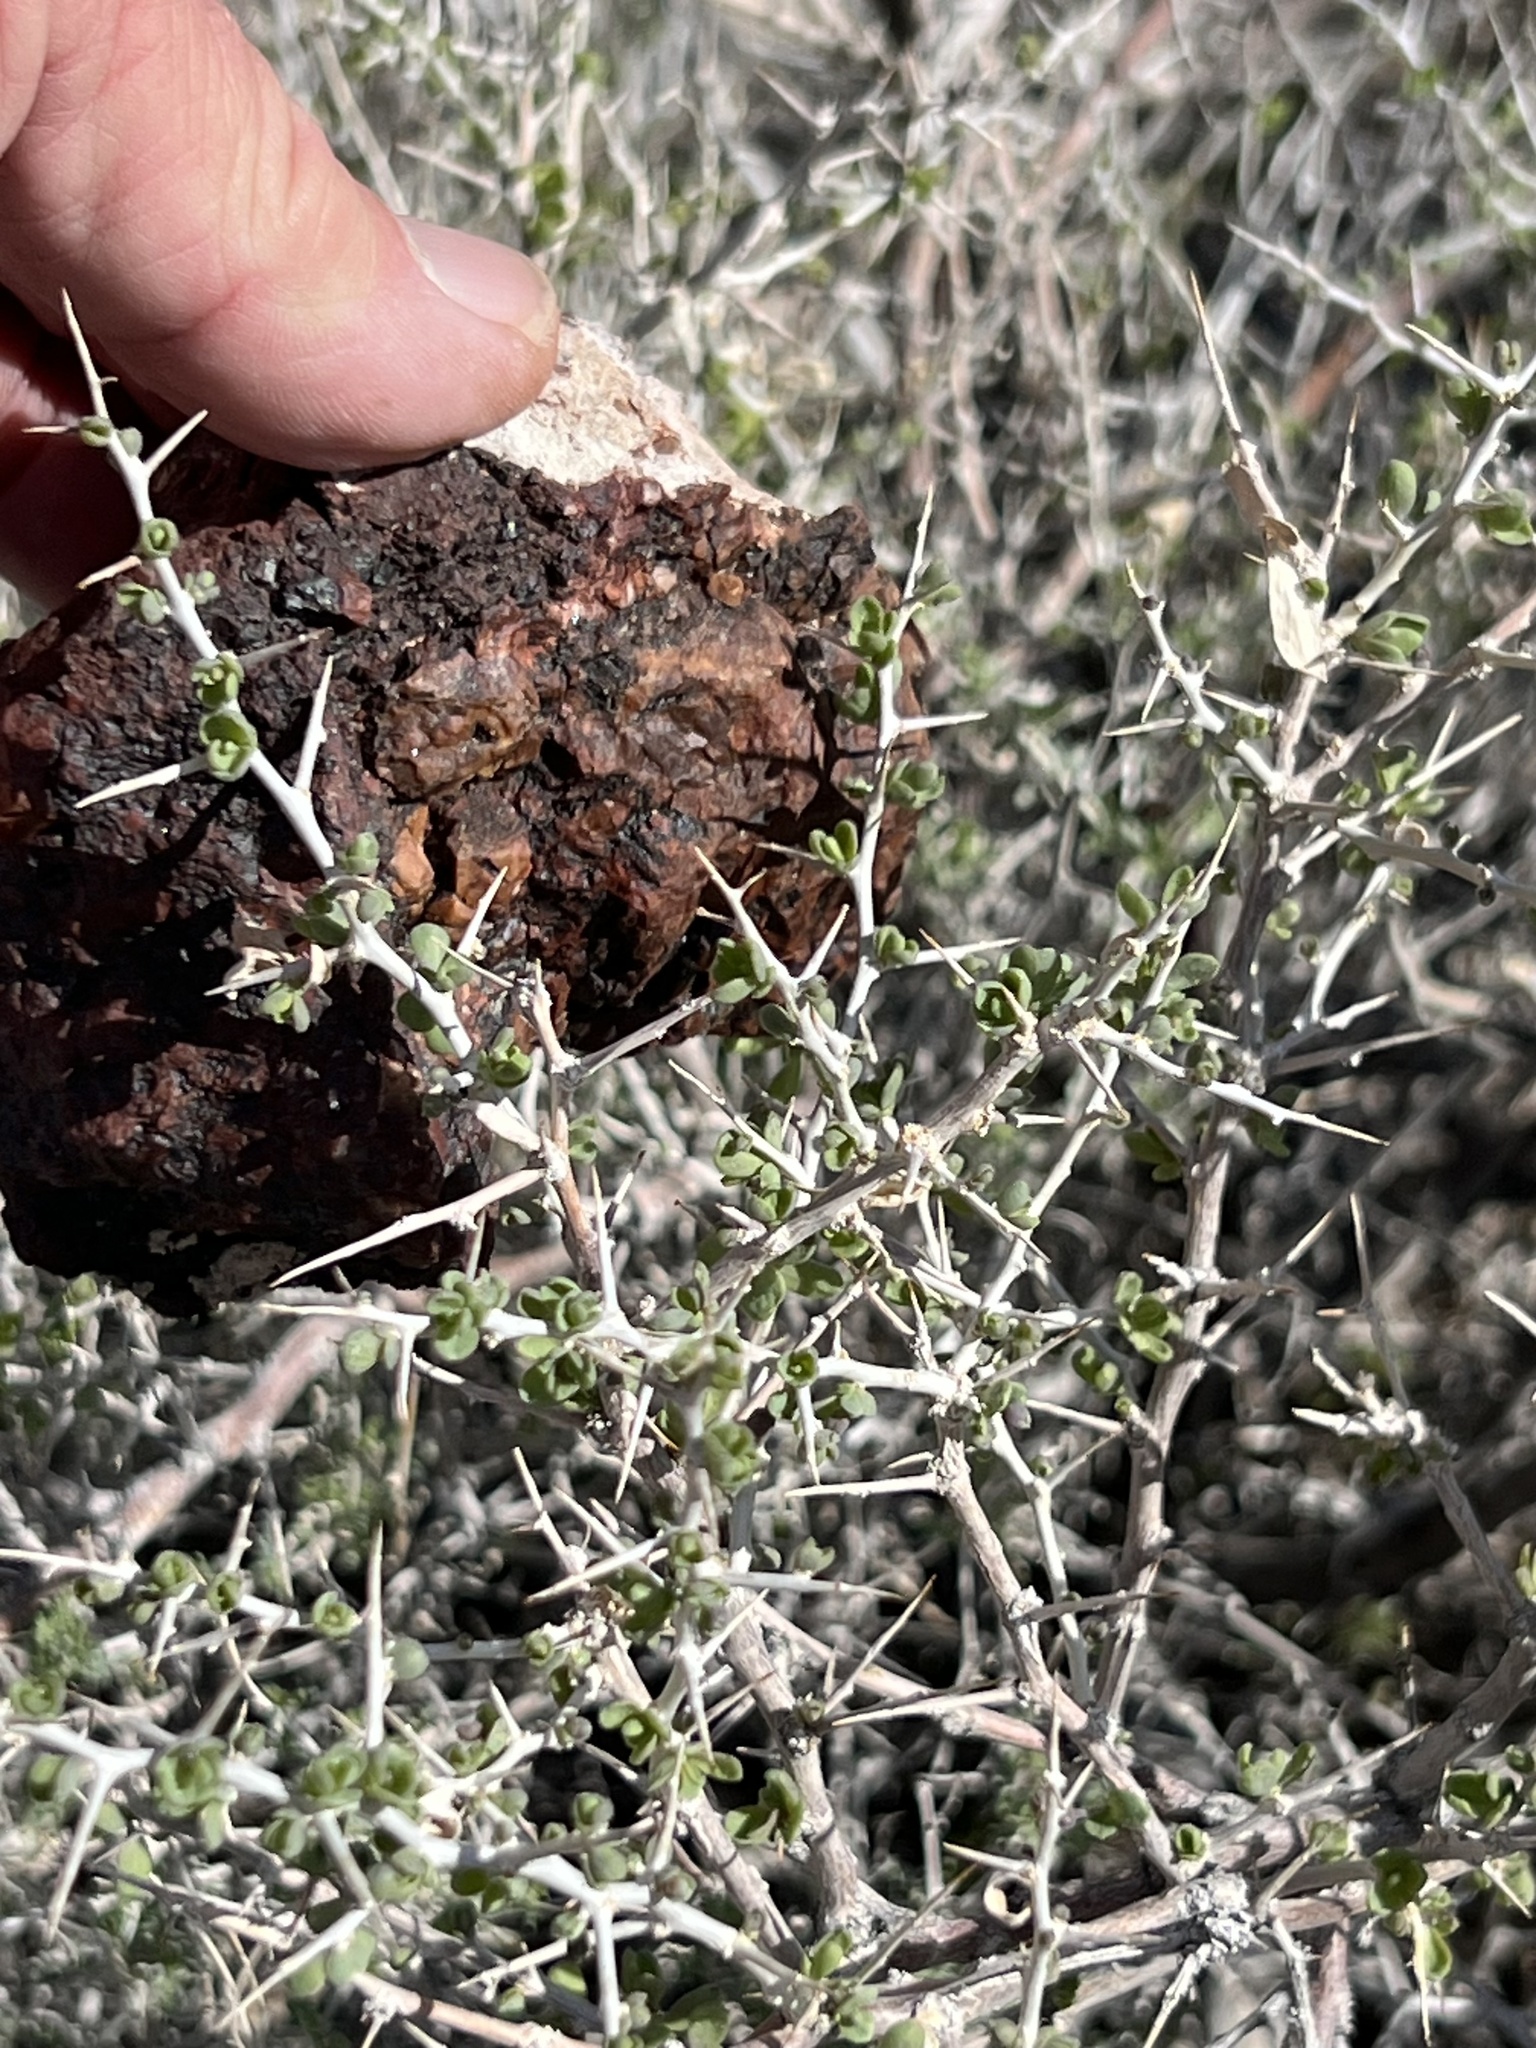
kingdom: Plantae
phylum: Tracheophyta
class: Magnoliopsida
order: Solanales
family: Solanaceae
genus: Lycium
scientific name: Lycium cooperi
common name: Peachthorn
